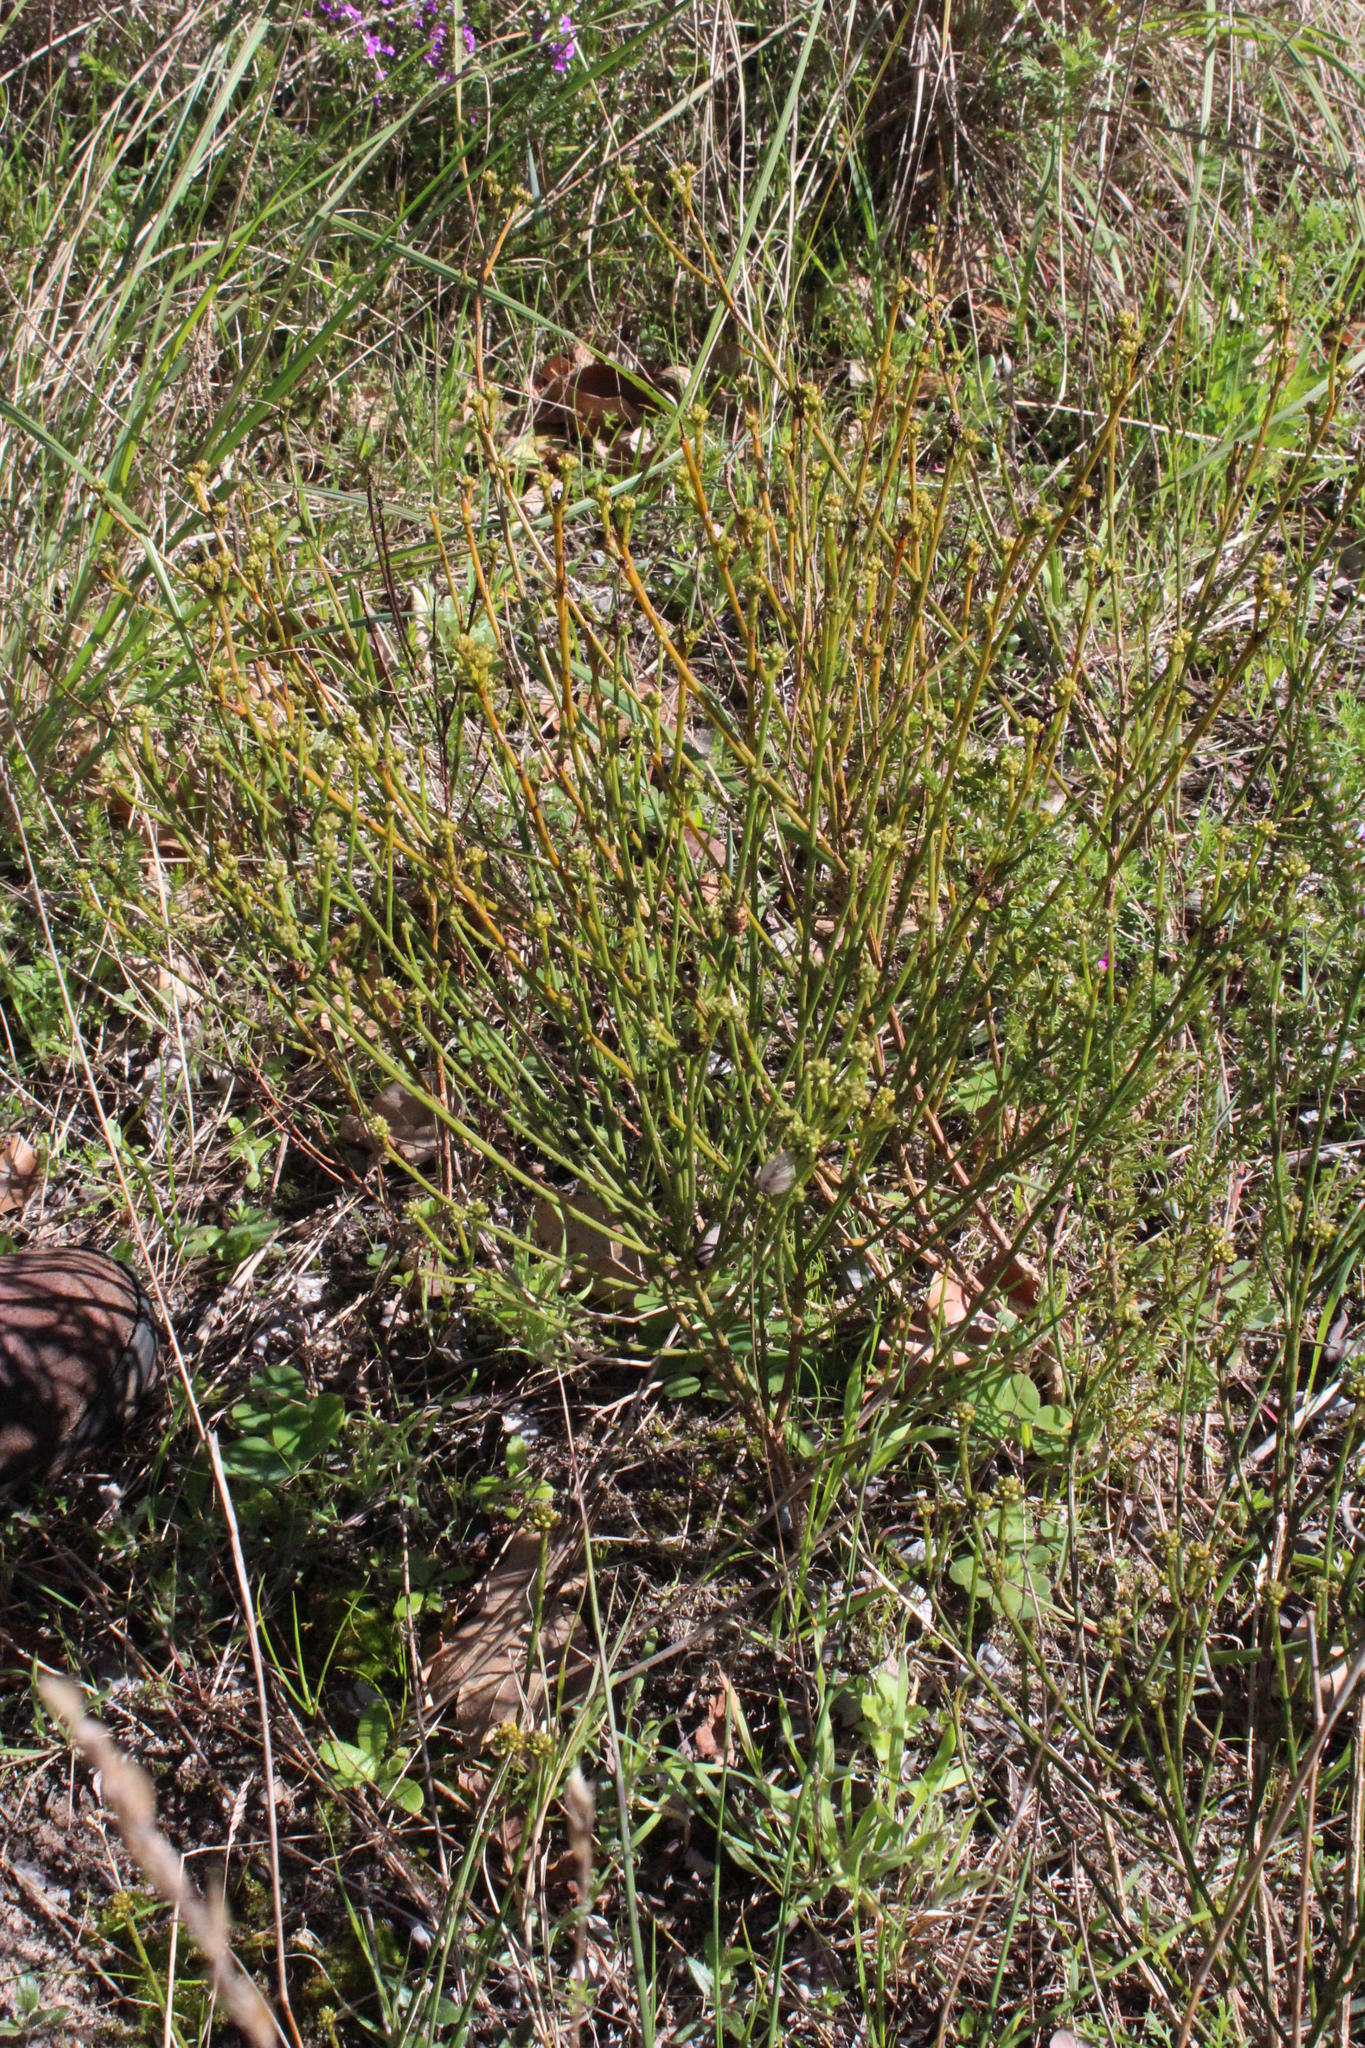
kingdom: Plantae
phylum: Tracheophyta
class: Magnoliopsida
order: Santalales
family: Thesiaceae
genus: Thesium
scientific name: Thesium aggregatum
